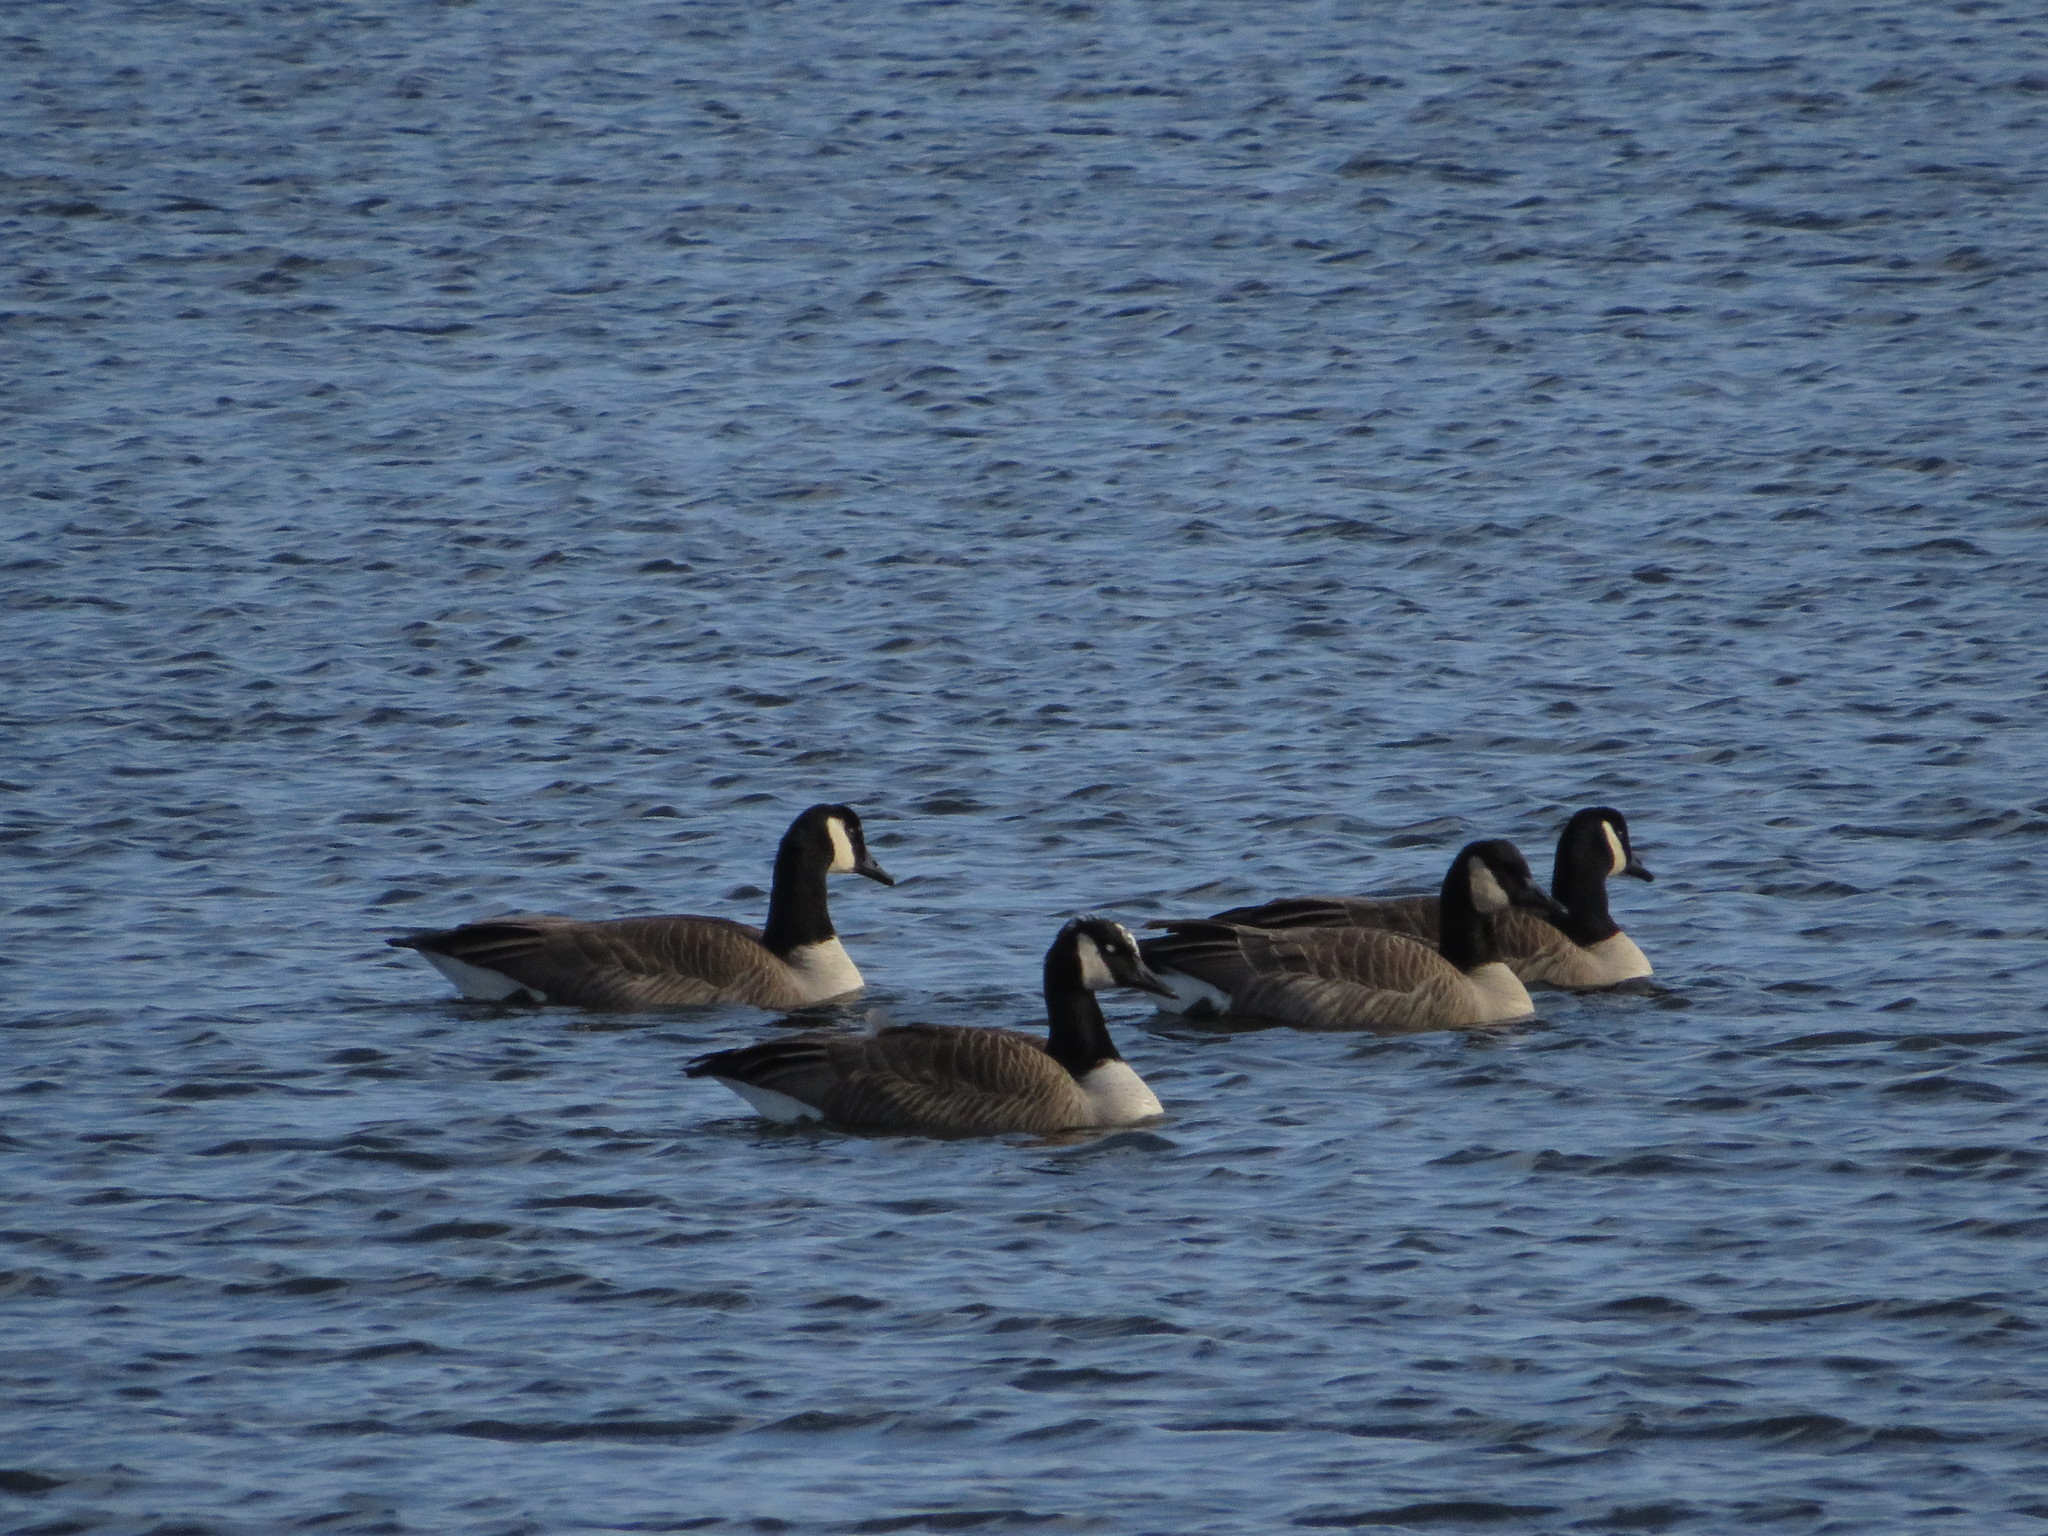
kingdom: Animalia
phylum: Chordata
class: Aves
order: Anseriformes
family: Anatidae
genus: Branta
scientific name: Branta canadensis
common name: Canada goose
